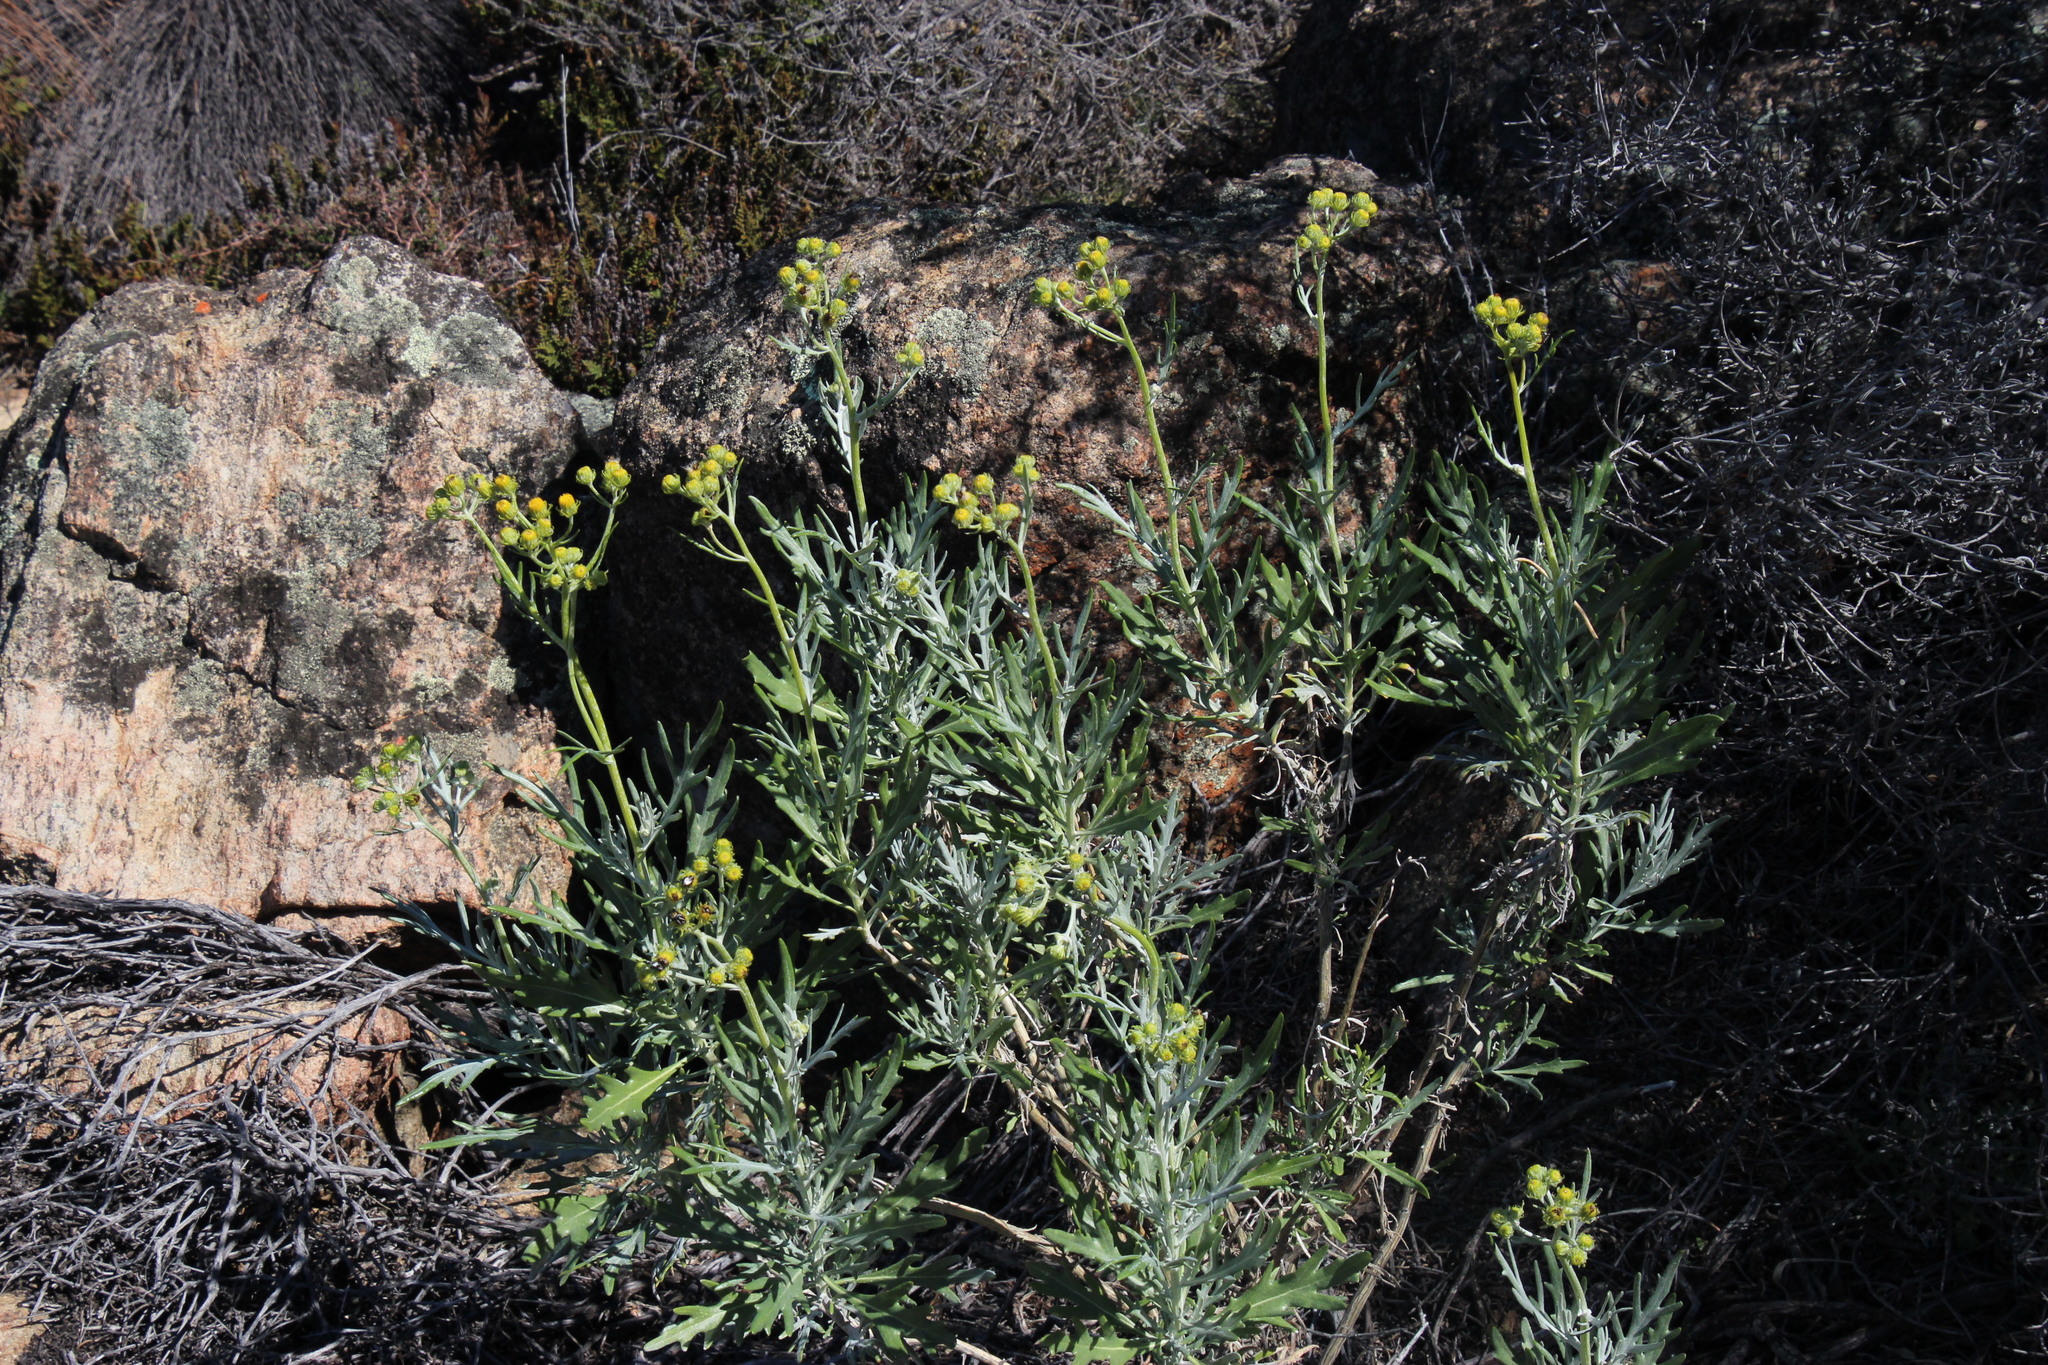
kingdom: Plantae
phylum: Tracheophyta
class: Magnoliopsida
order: Asterales
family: Asteraceae
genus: Senecio
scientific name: Senecio cinerascens
